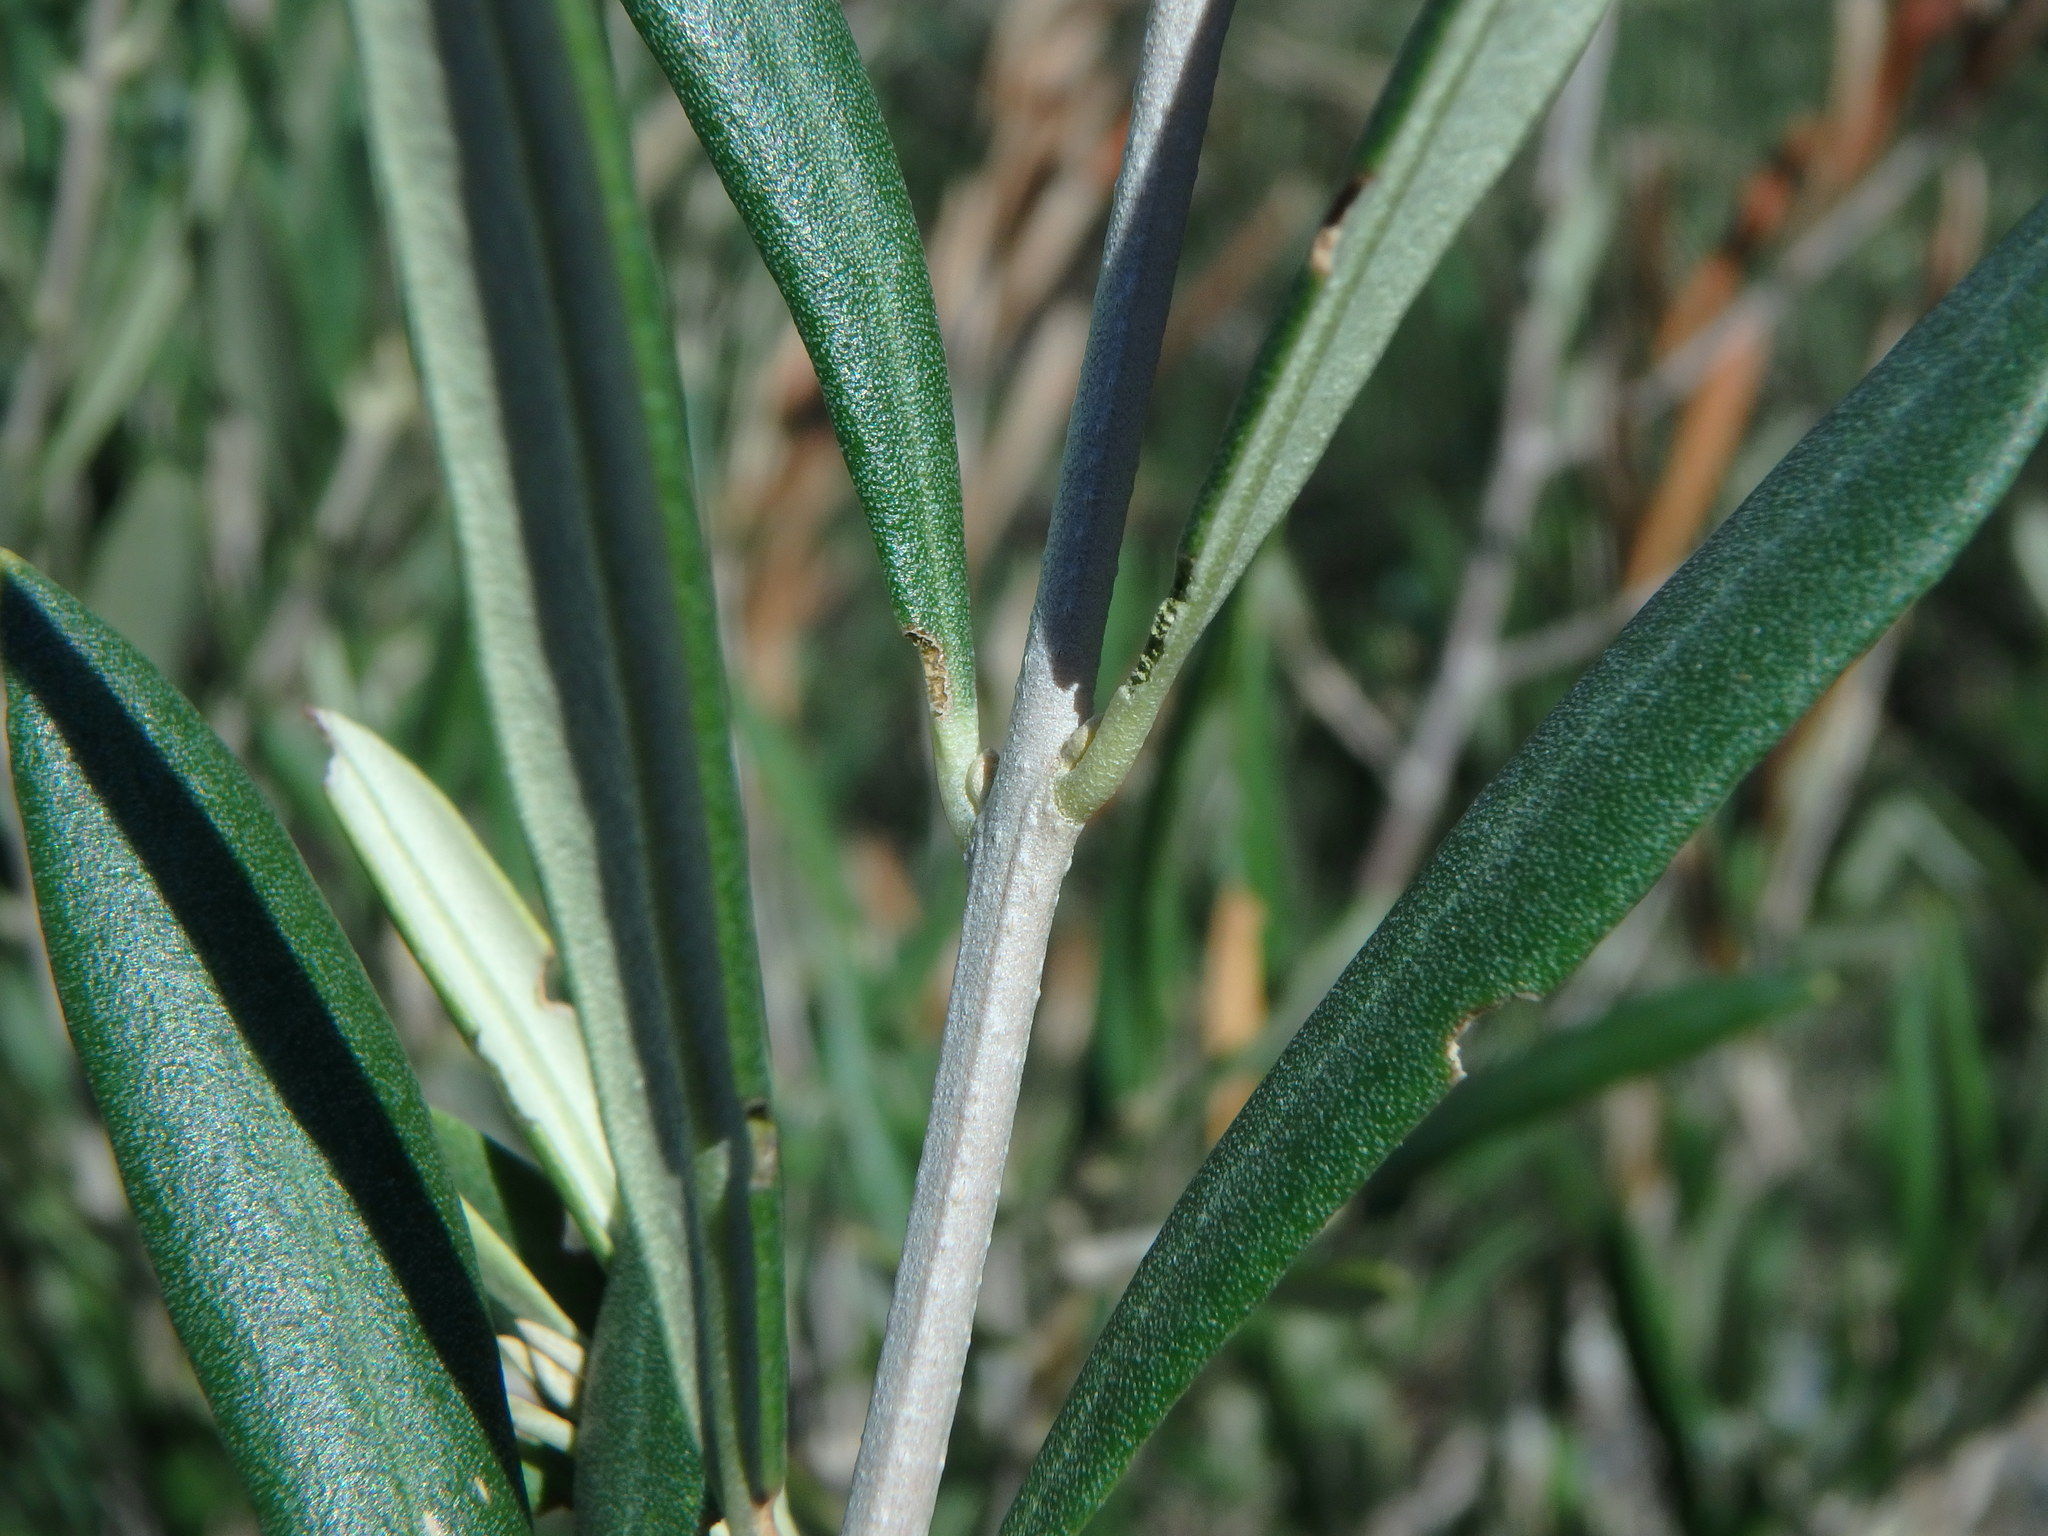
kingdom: Plantae
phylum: Tracheophyta
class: Magnoliopsida
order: Lamiales
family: Oleaceae
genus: Olea
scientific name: Olea europaea
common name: Olive
